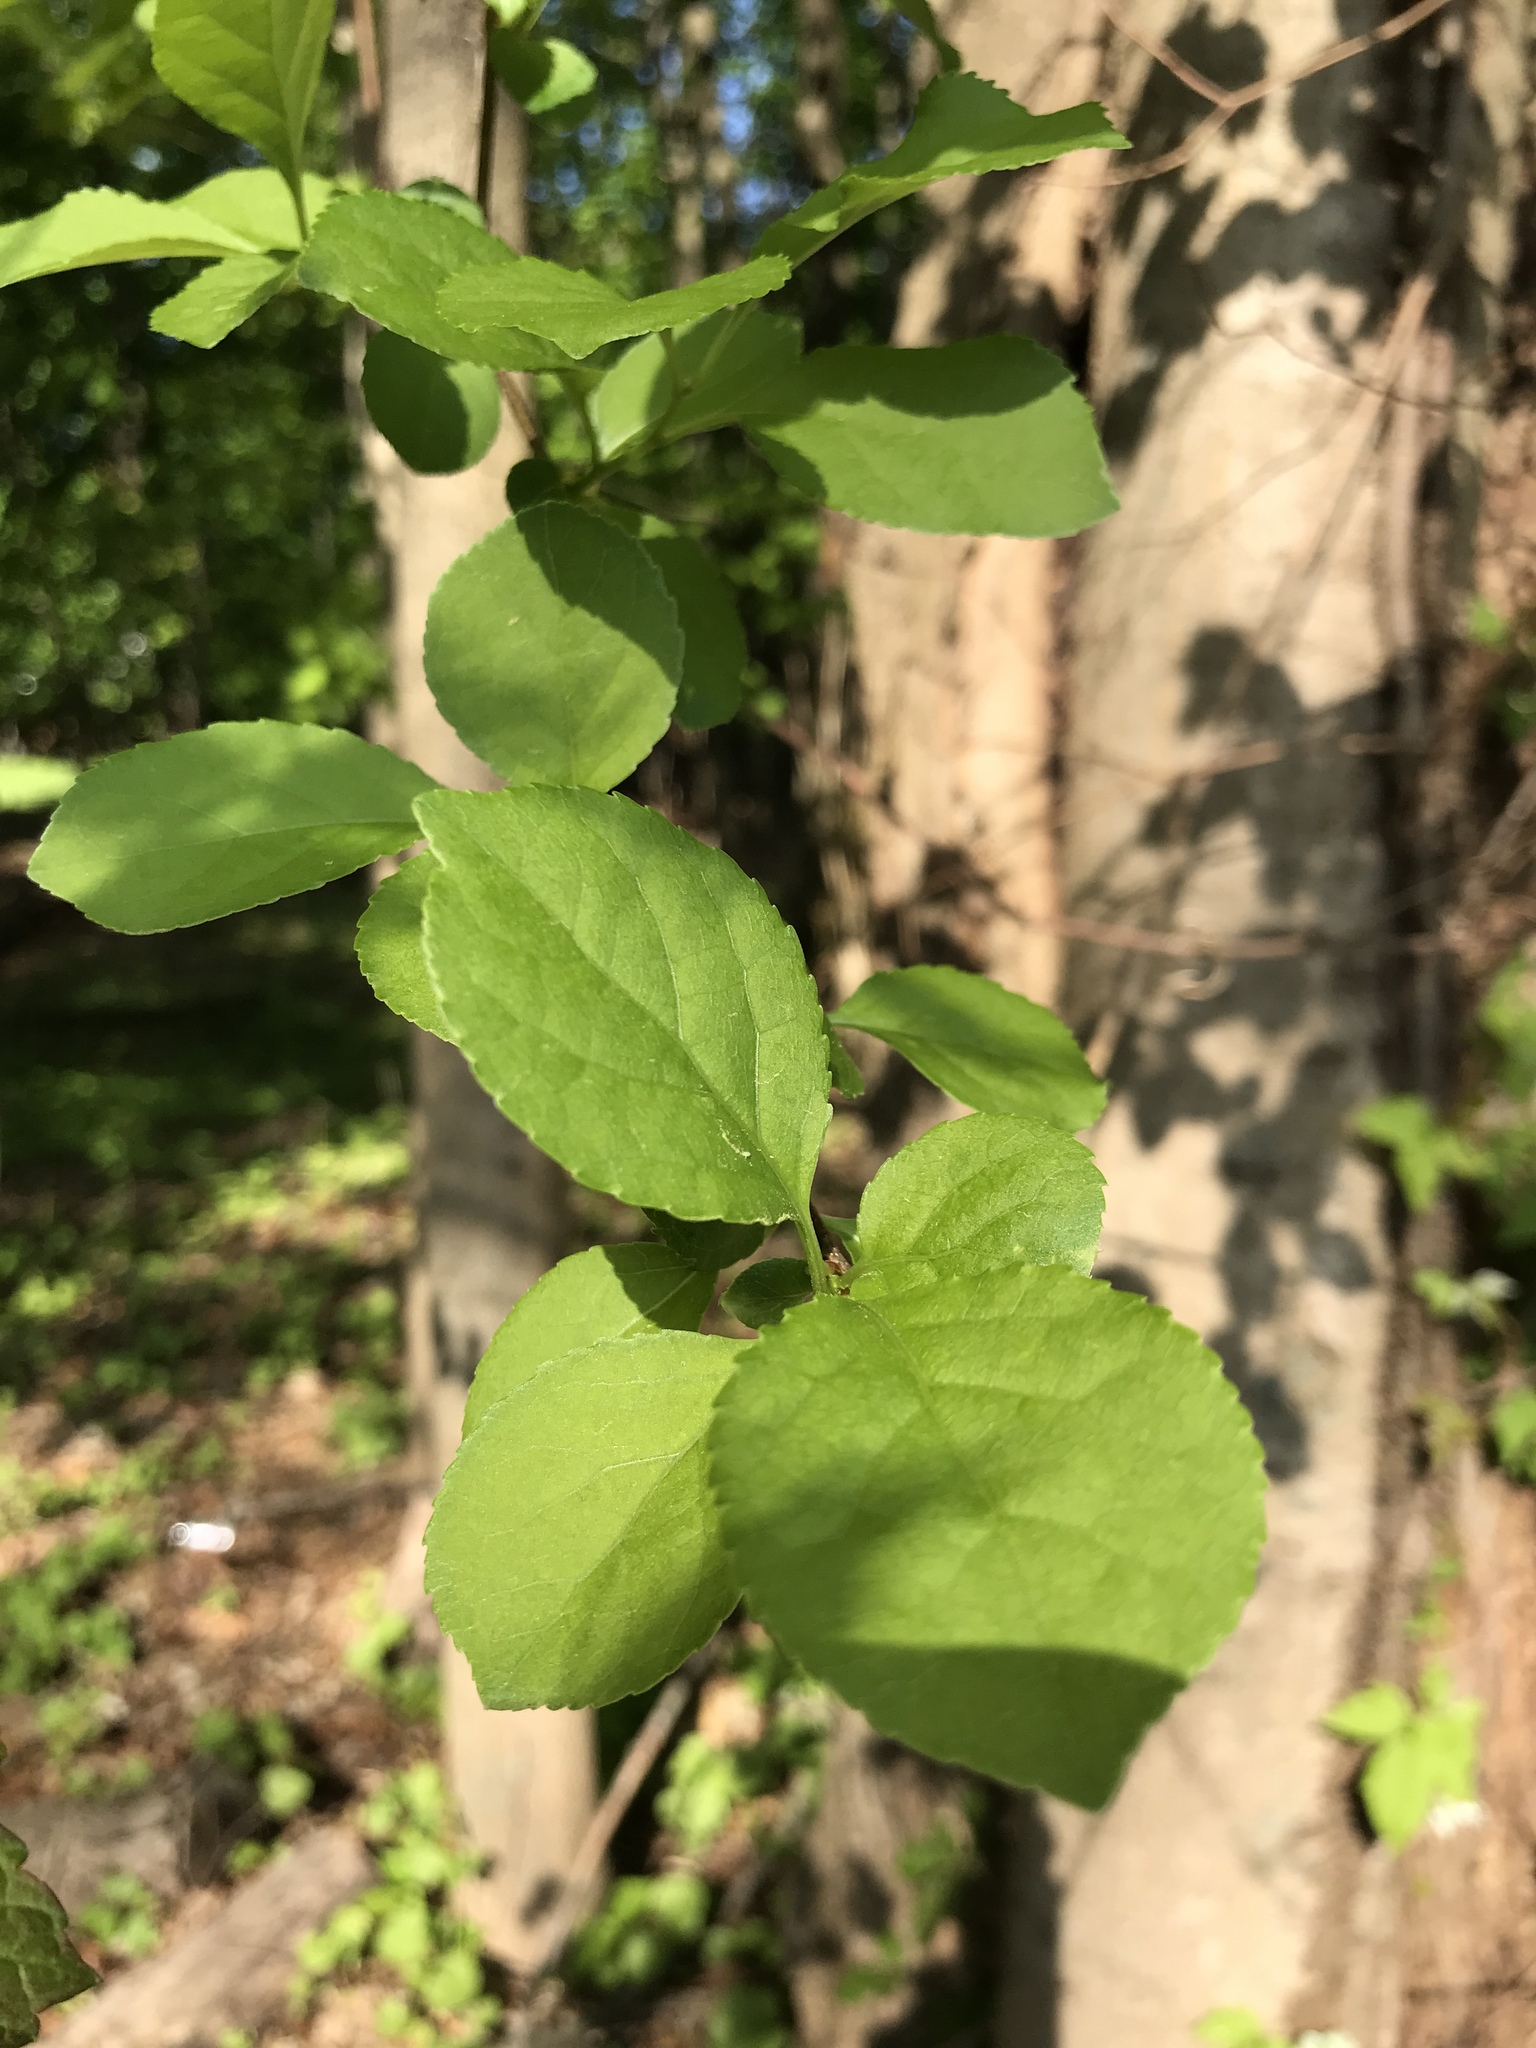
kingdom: Plantae
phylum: Tracheophyta
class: Magnoliopsida
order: Celastrales
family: Celastraceae
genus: Celastrus
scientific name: Celastrus orbiculatus
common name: Oriental bittersweet
